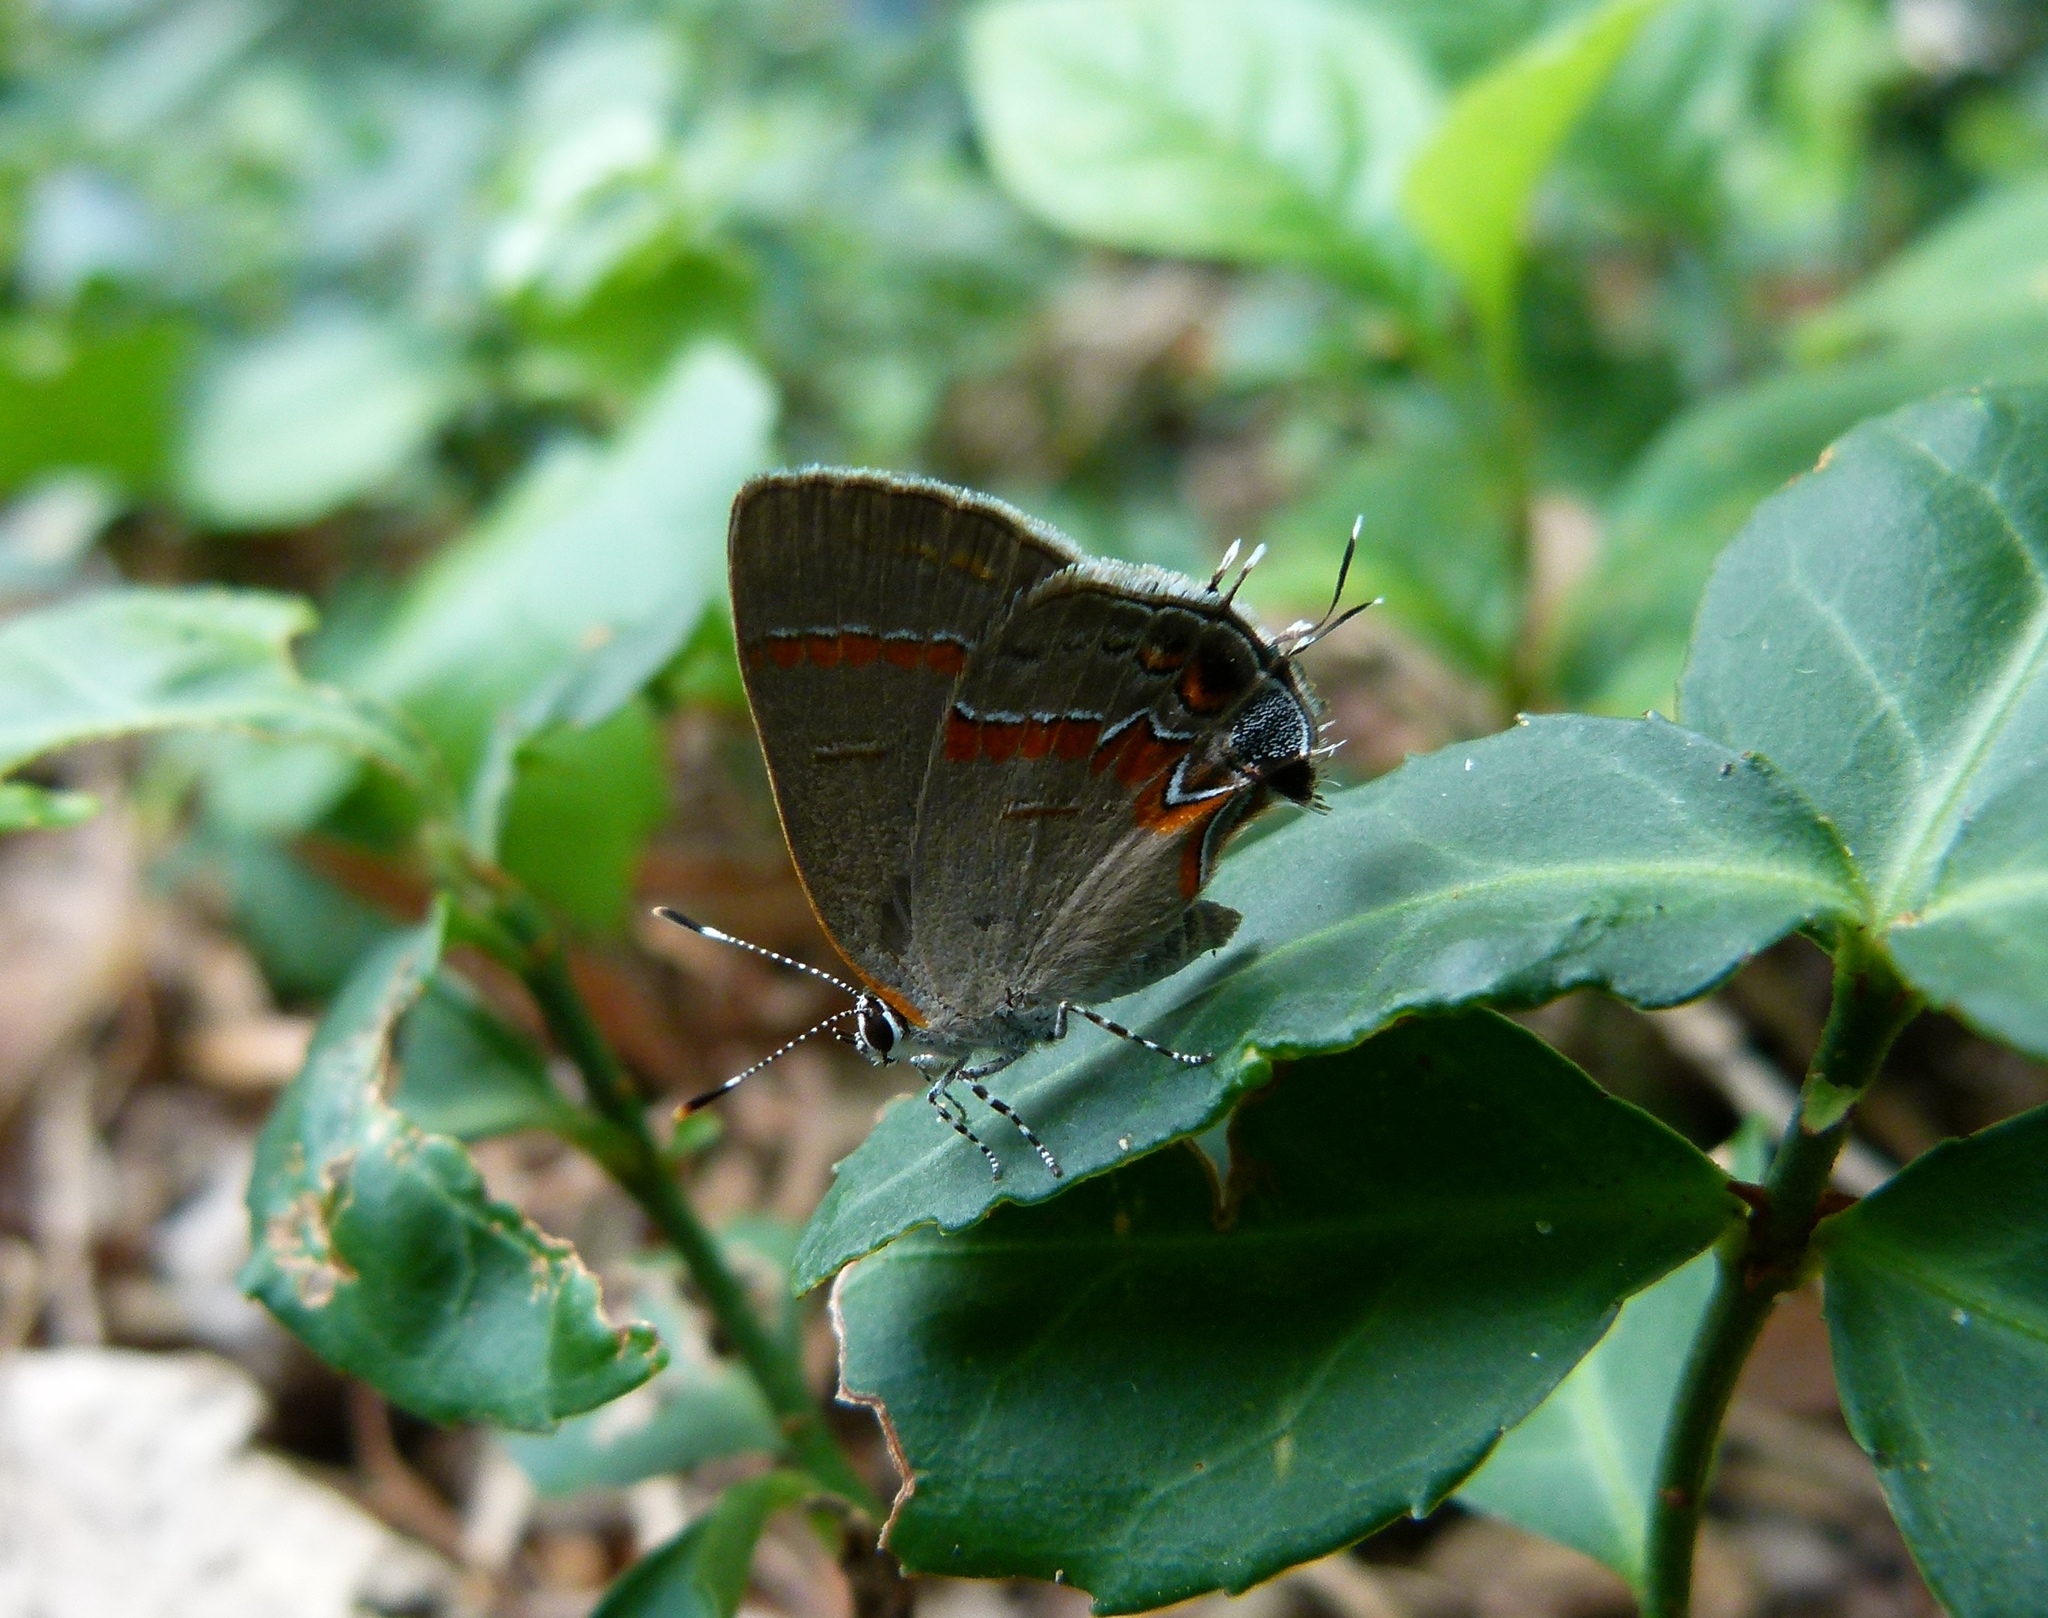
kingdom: Animalia
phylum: Arthropoda
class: Insecta
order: Lepidoptera
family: Lycaenidae
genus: Calycopis
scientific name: Calycopis cecrops
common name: Red-banded hairstreak
